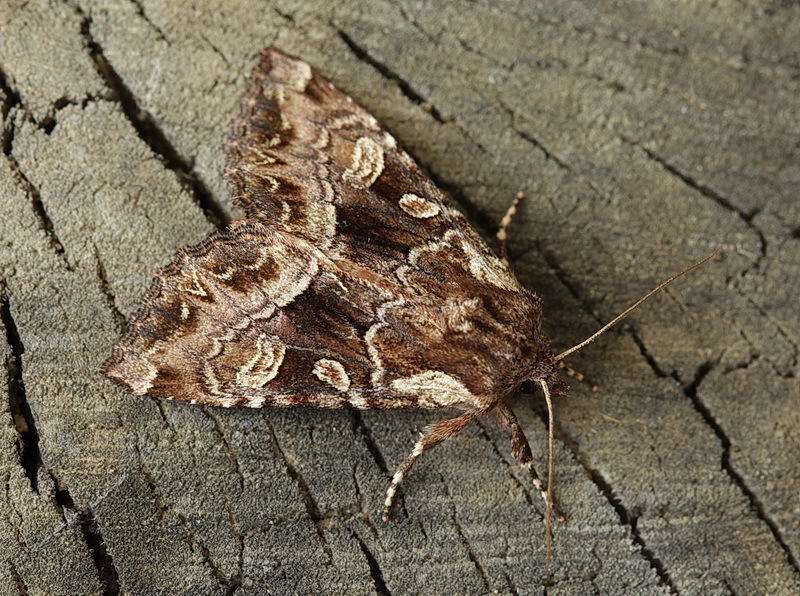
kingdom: Animalia
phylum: Arthropoda
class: Insecta
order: Lepidoptera
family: Noctuidae
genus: Blepharita
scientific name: Blepharita amica
